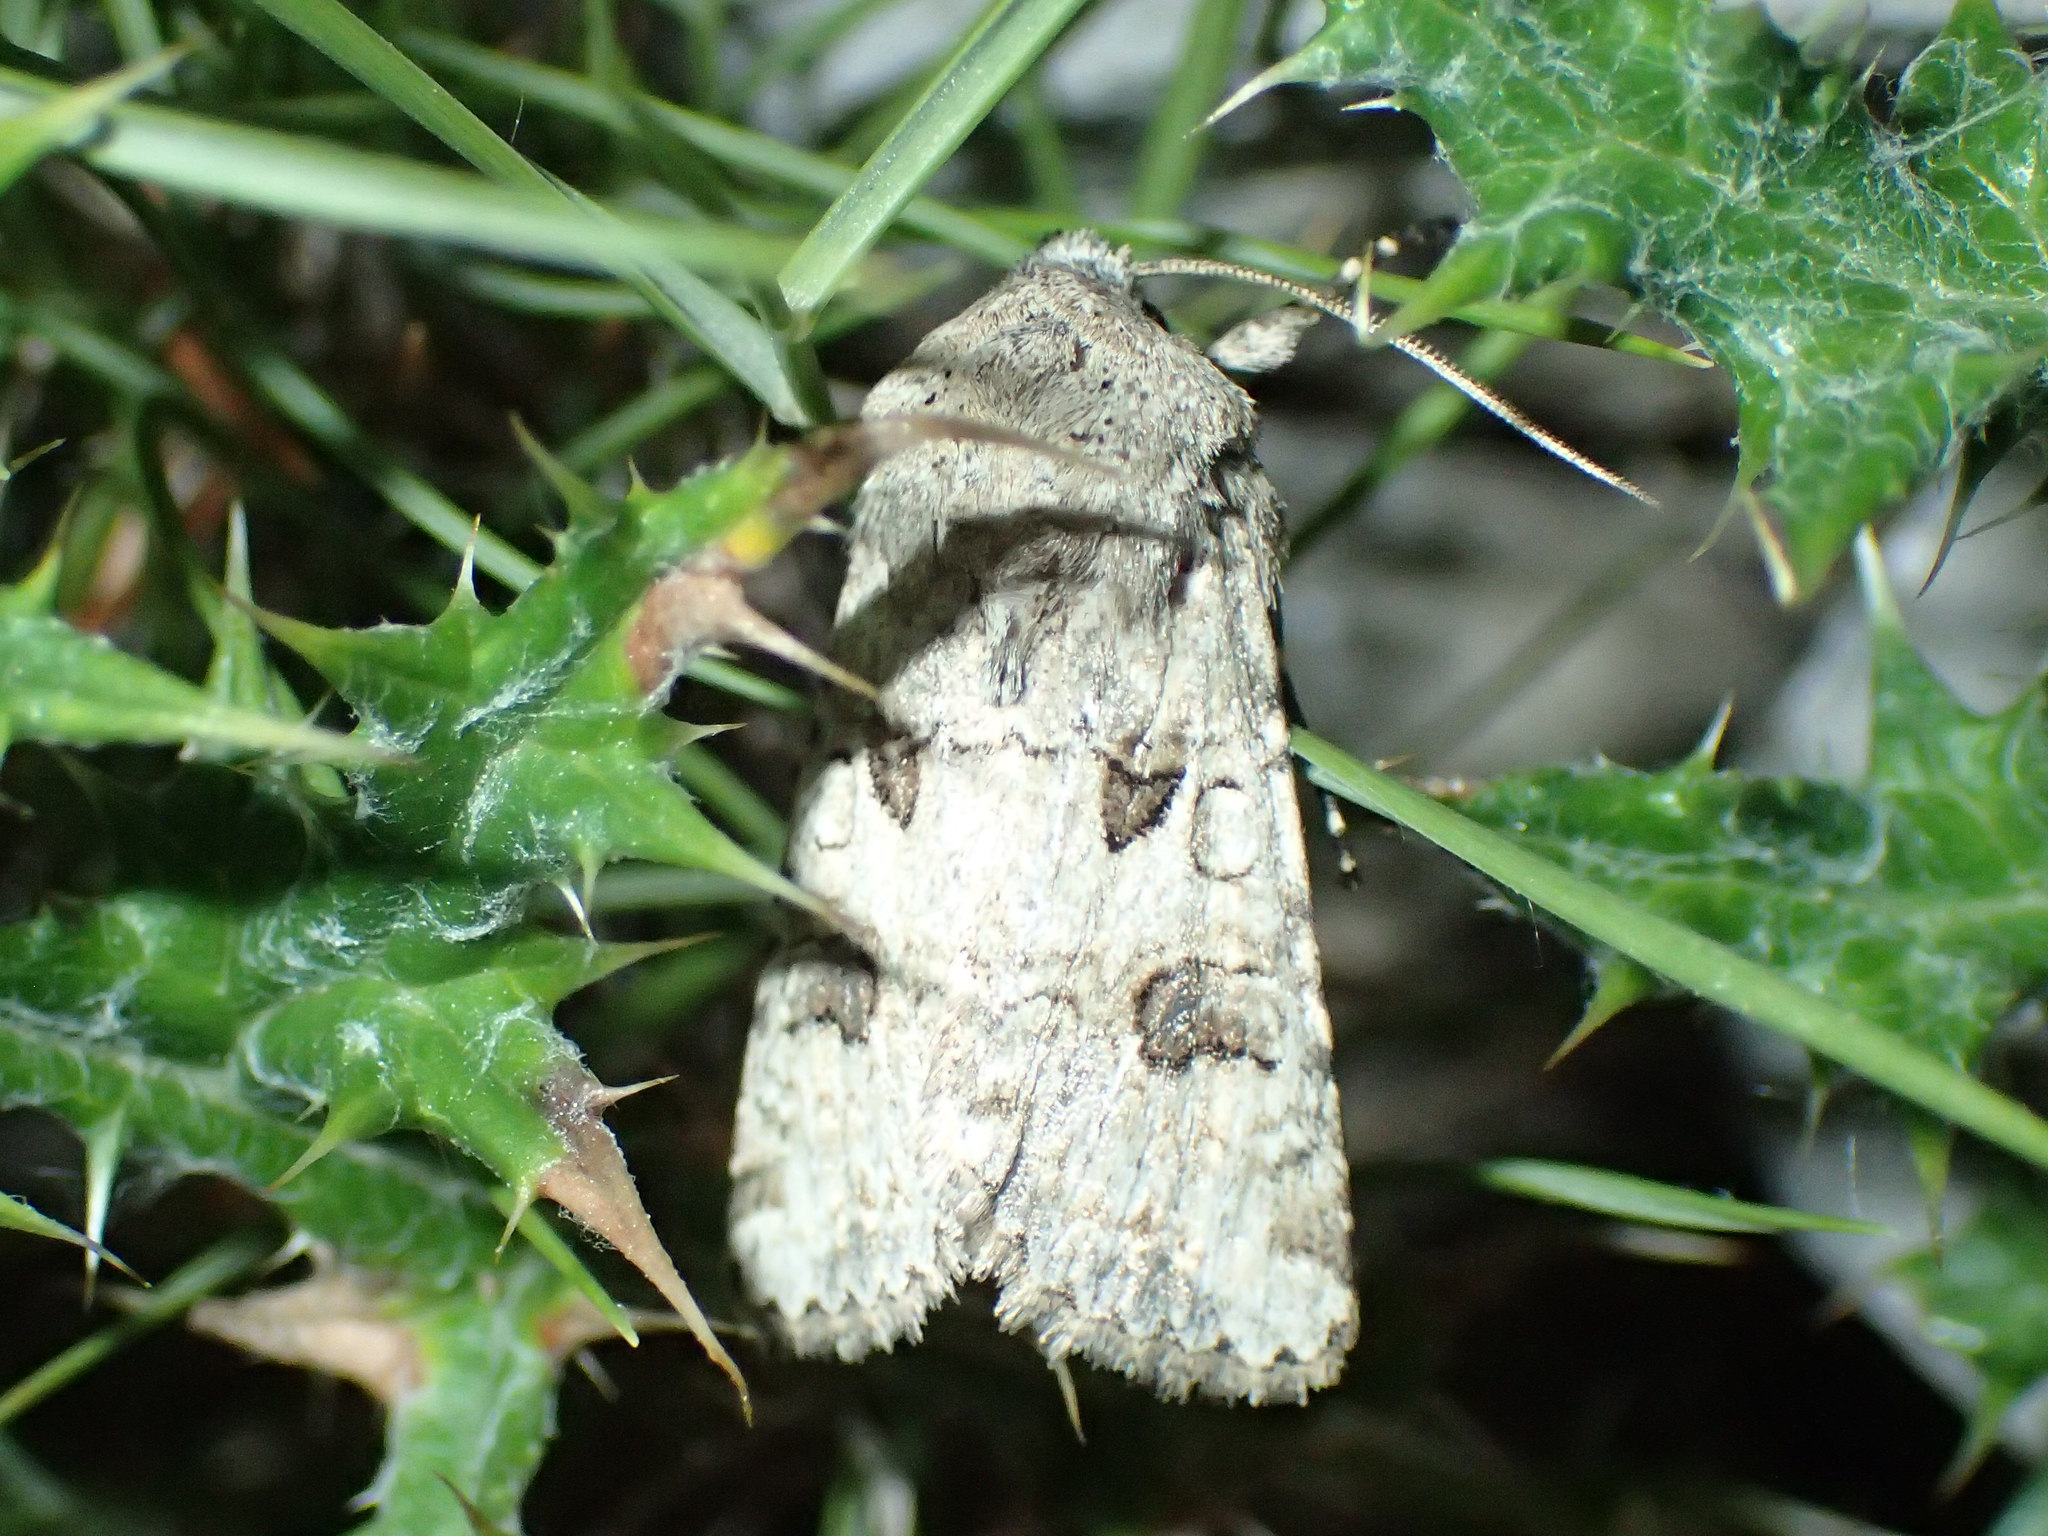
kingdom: Animalia
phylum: Arthropoda
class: Insecta
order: Lepidoptera
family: Noctuidae
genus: Anarta
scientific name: Anarta sodae
